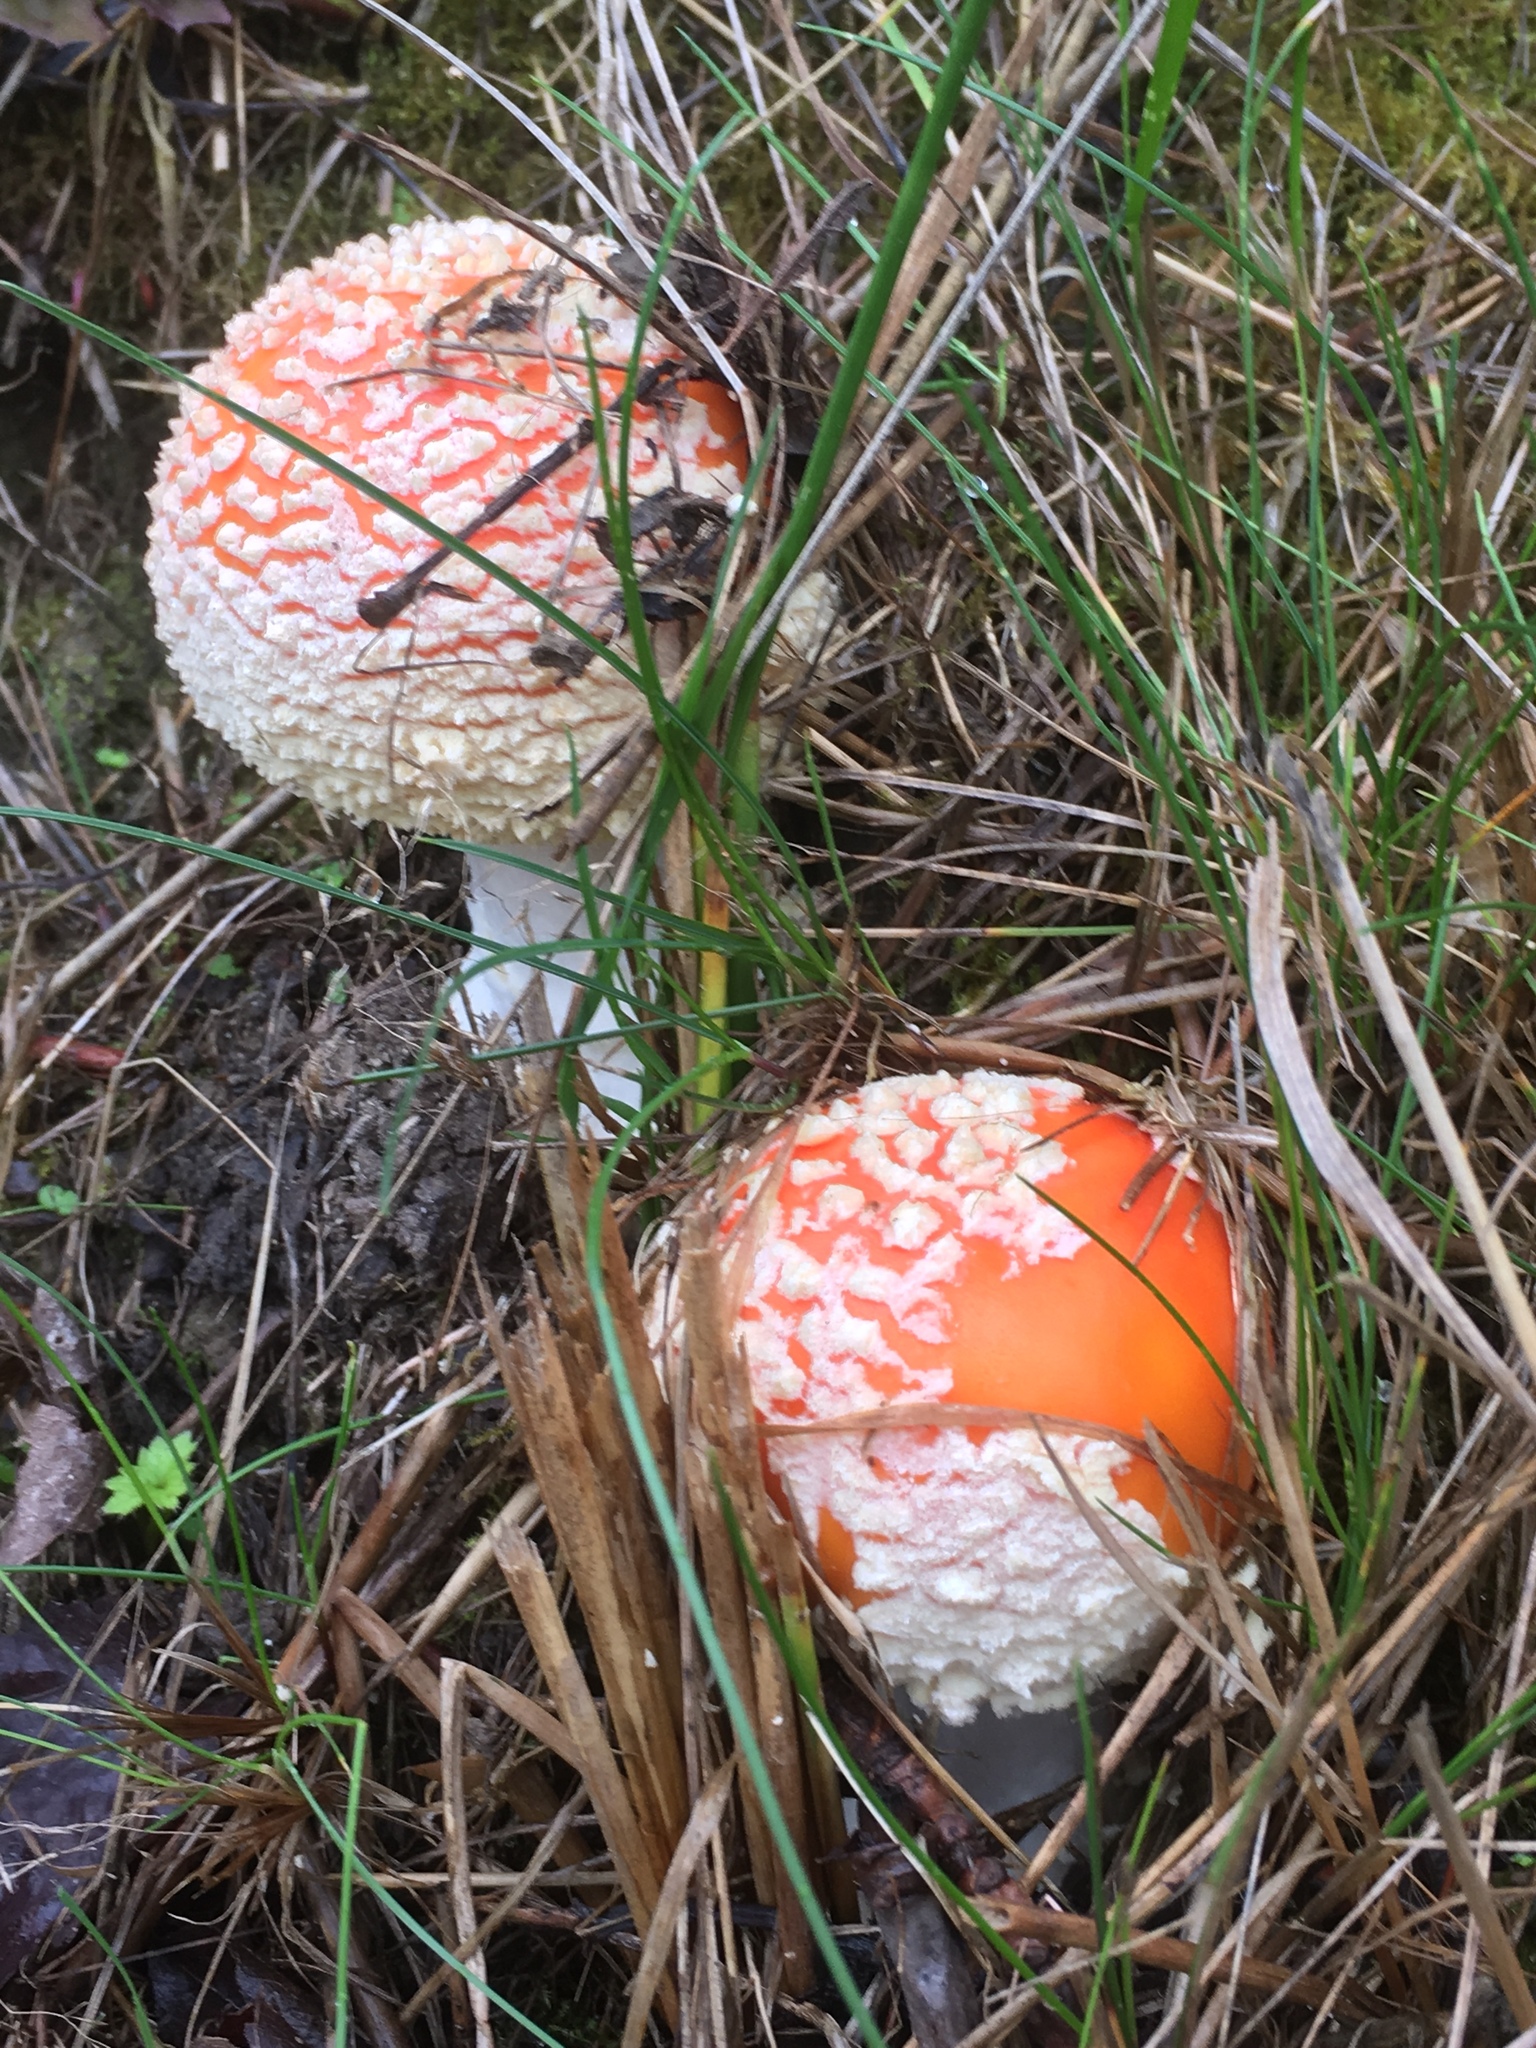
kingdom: Fungi
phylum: Basidiomycota
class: Agaricomycetes
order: Agaricales
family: Amanitaceae
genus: Amanita
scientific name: Amanita muscaria
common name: Fly agaric
